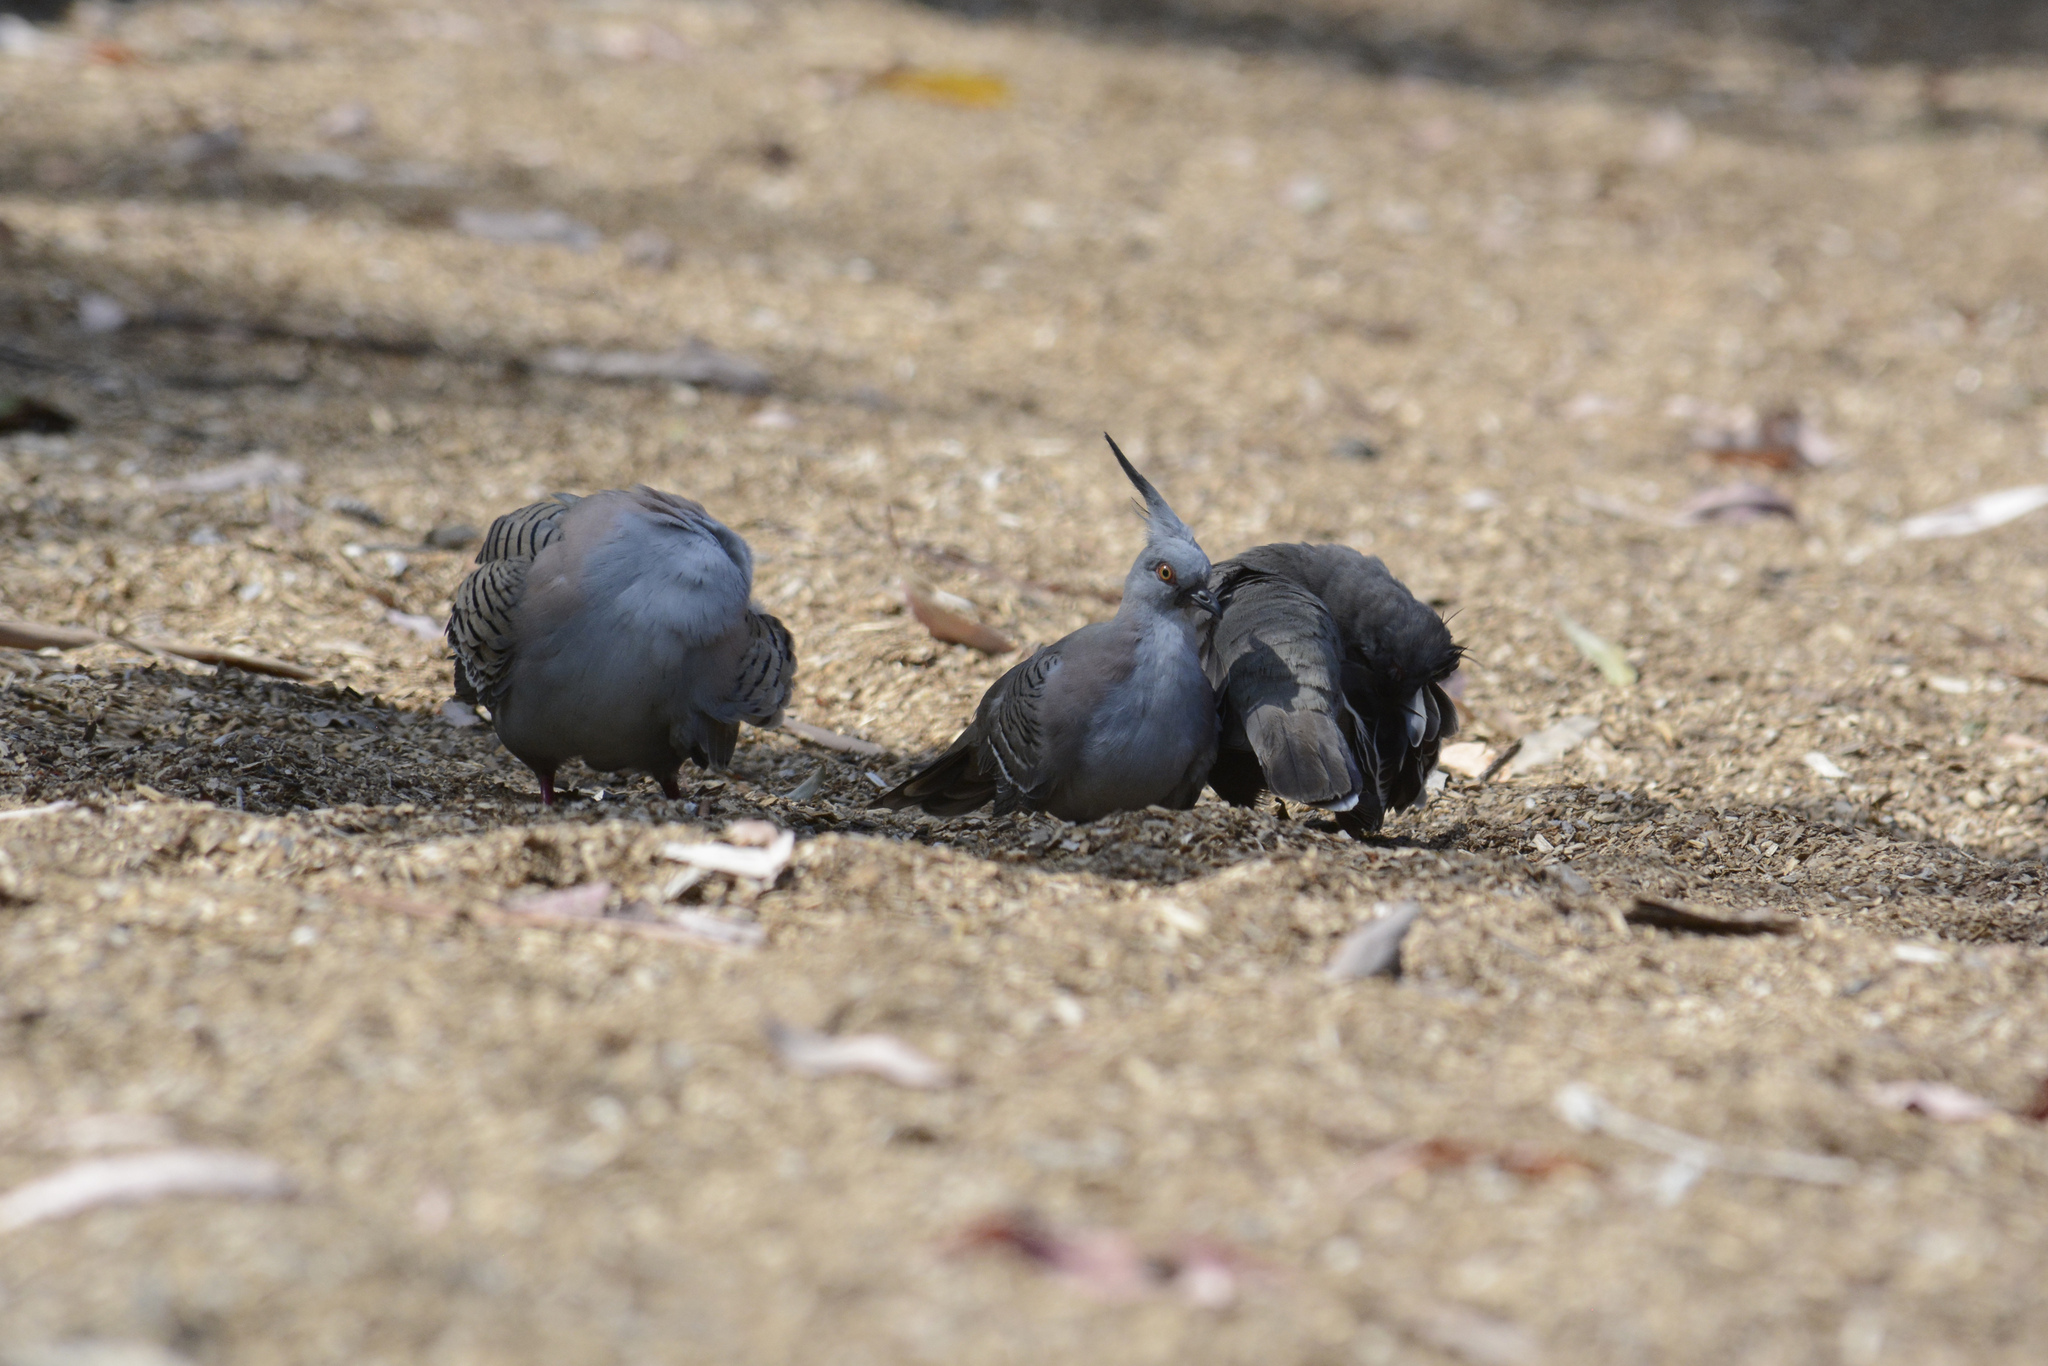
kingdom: Animalia
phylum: Chordata
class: Aves
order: Columbiformes
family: Columbidae
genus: Ocyphaps
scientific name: Ocyphaps lophotes
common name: Crested pigeon
